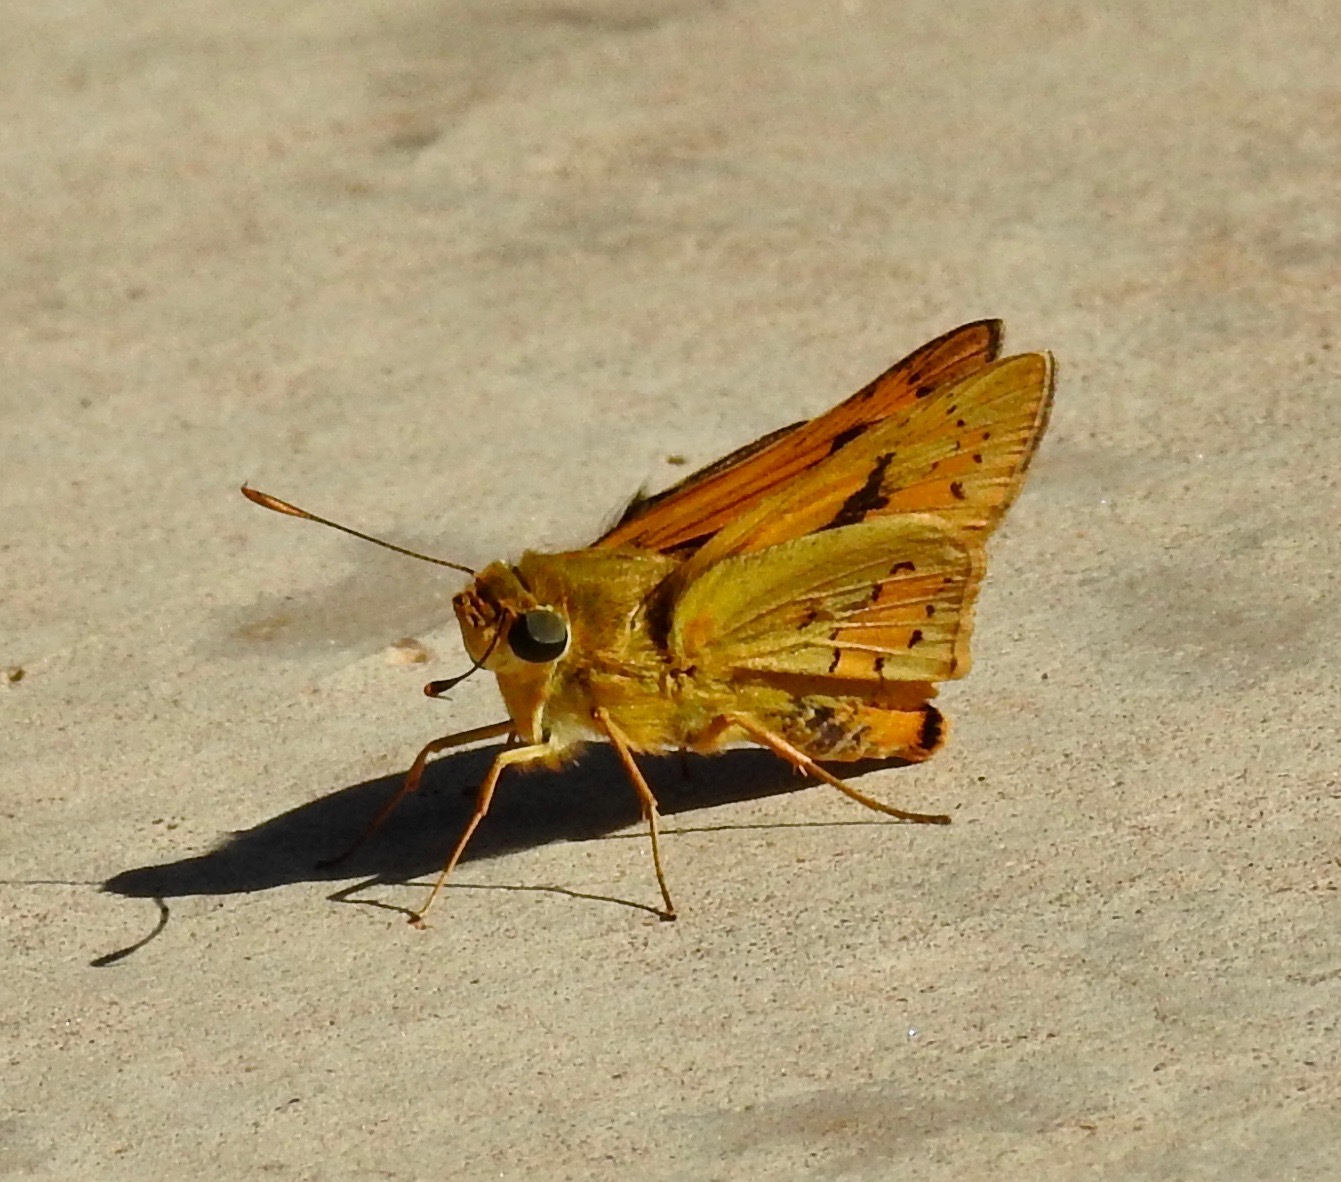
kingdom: Animalia
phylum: Arthropoda
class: Insecta
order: Lepidoptera
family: Hesperiidae
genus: Cephrenes
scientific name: Cephrenes trichopepla
